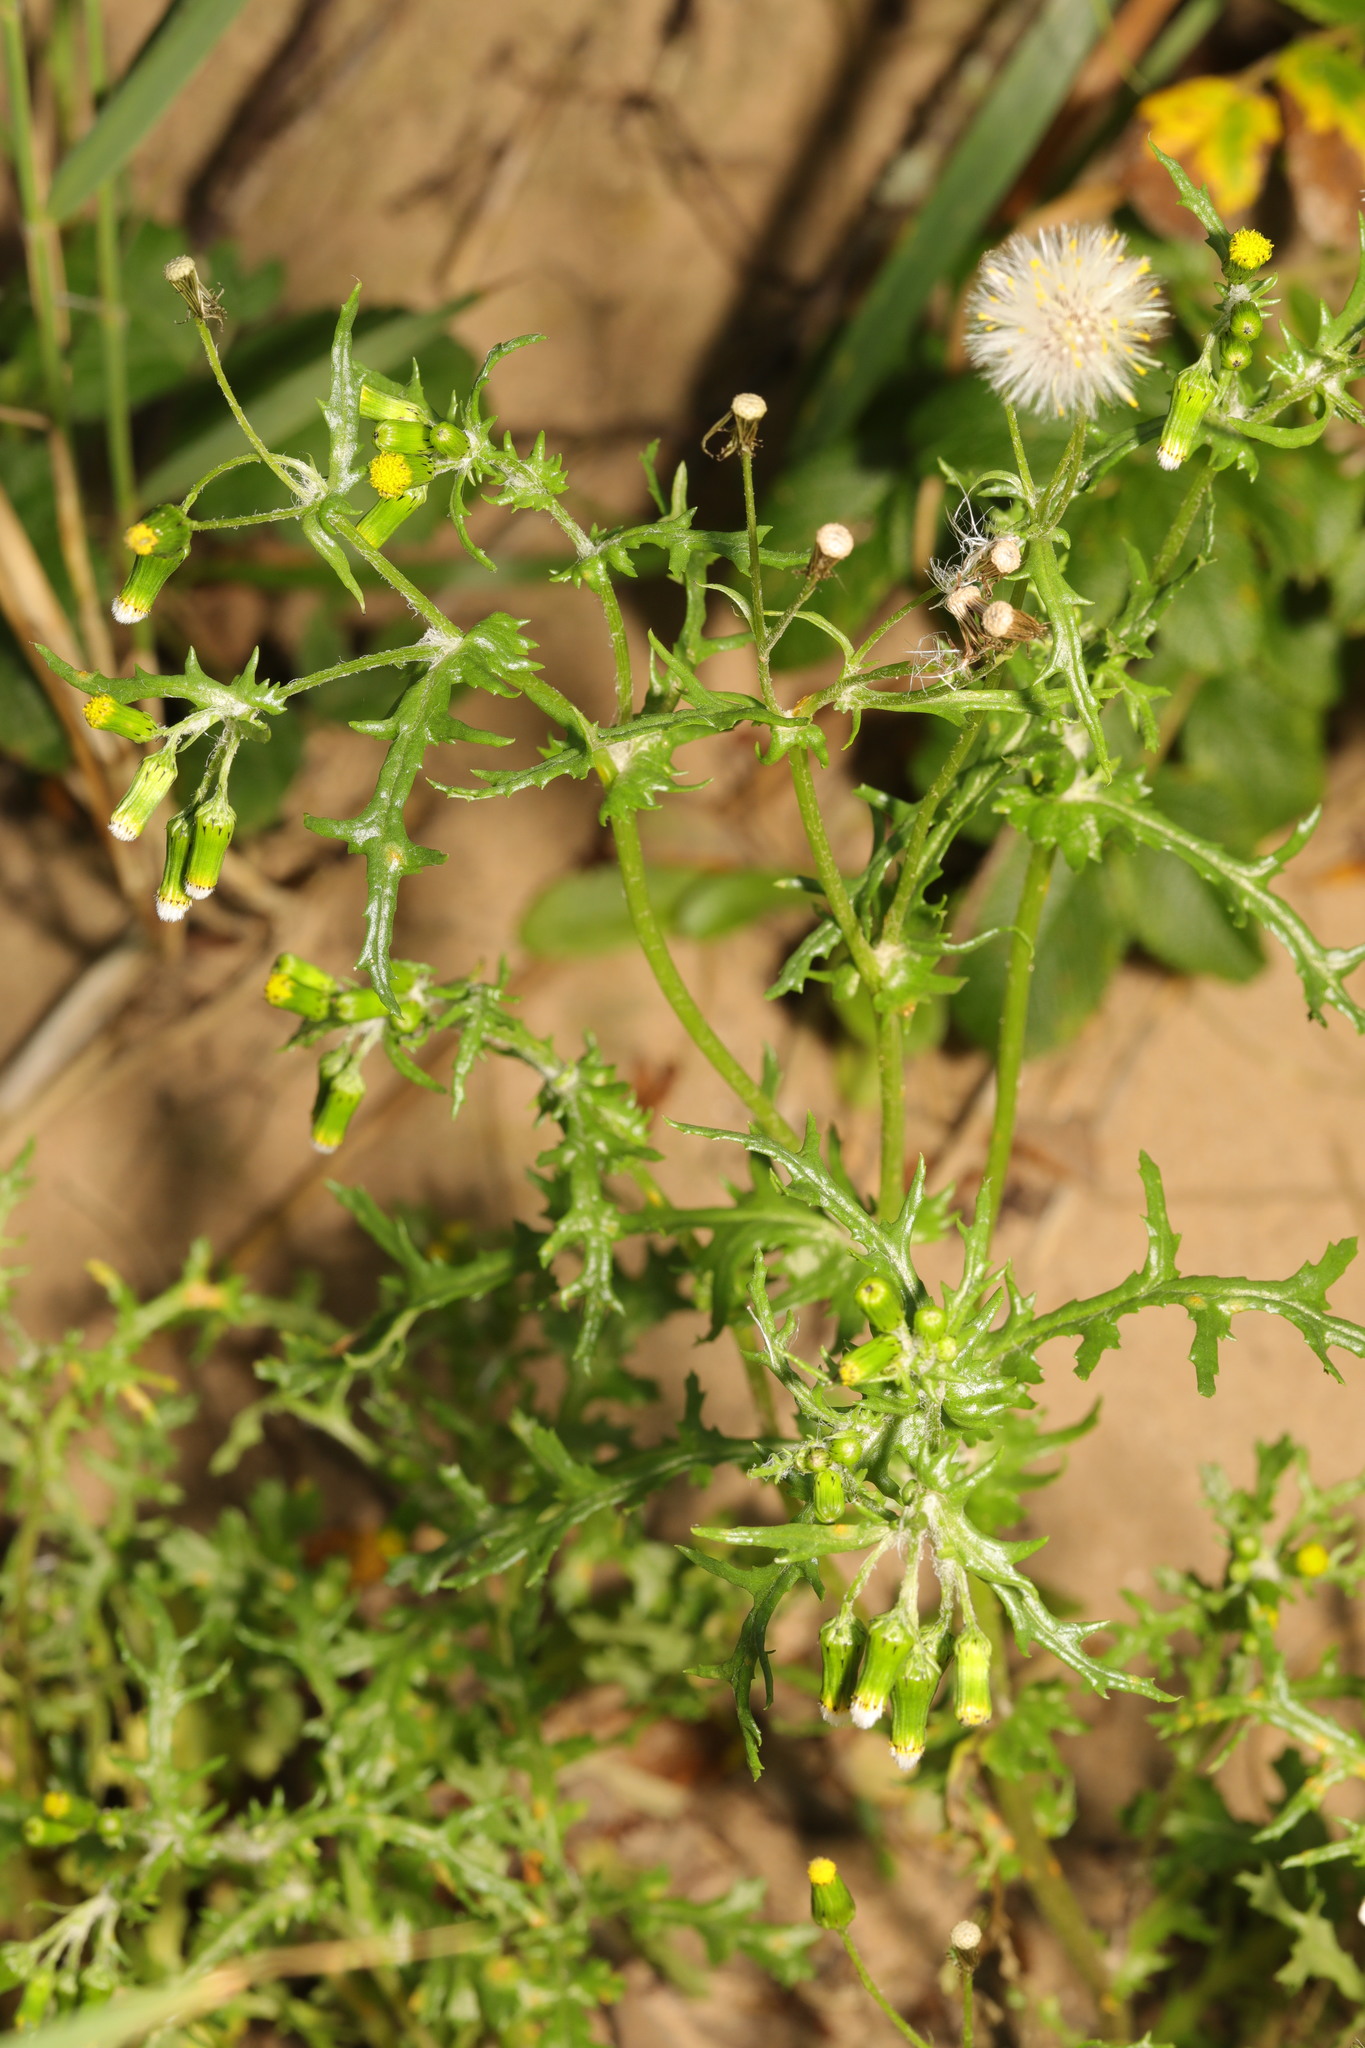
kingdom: Plantae
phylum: Tracheophyta
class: Magnoliopsida
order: Asterales
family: Asteraceae
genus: Senecio
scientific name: Senecio vulgaris
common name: Old-man-in-the-spring
